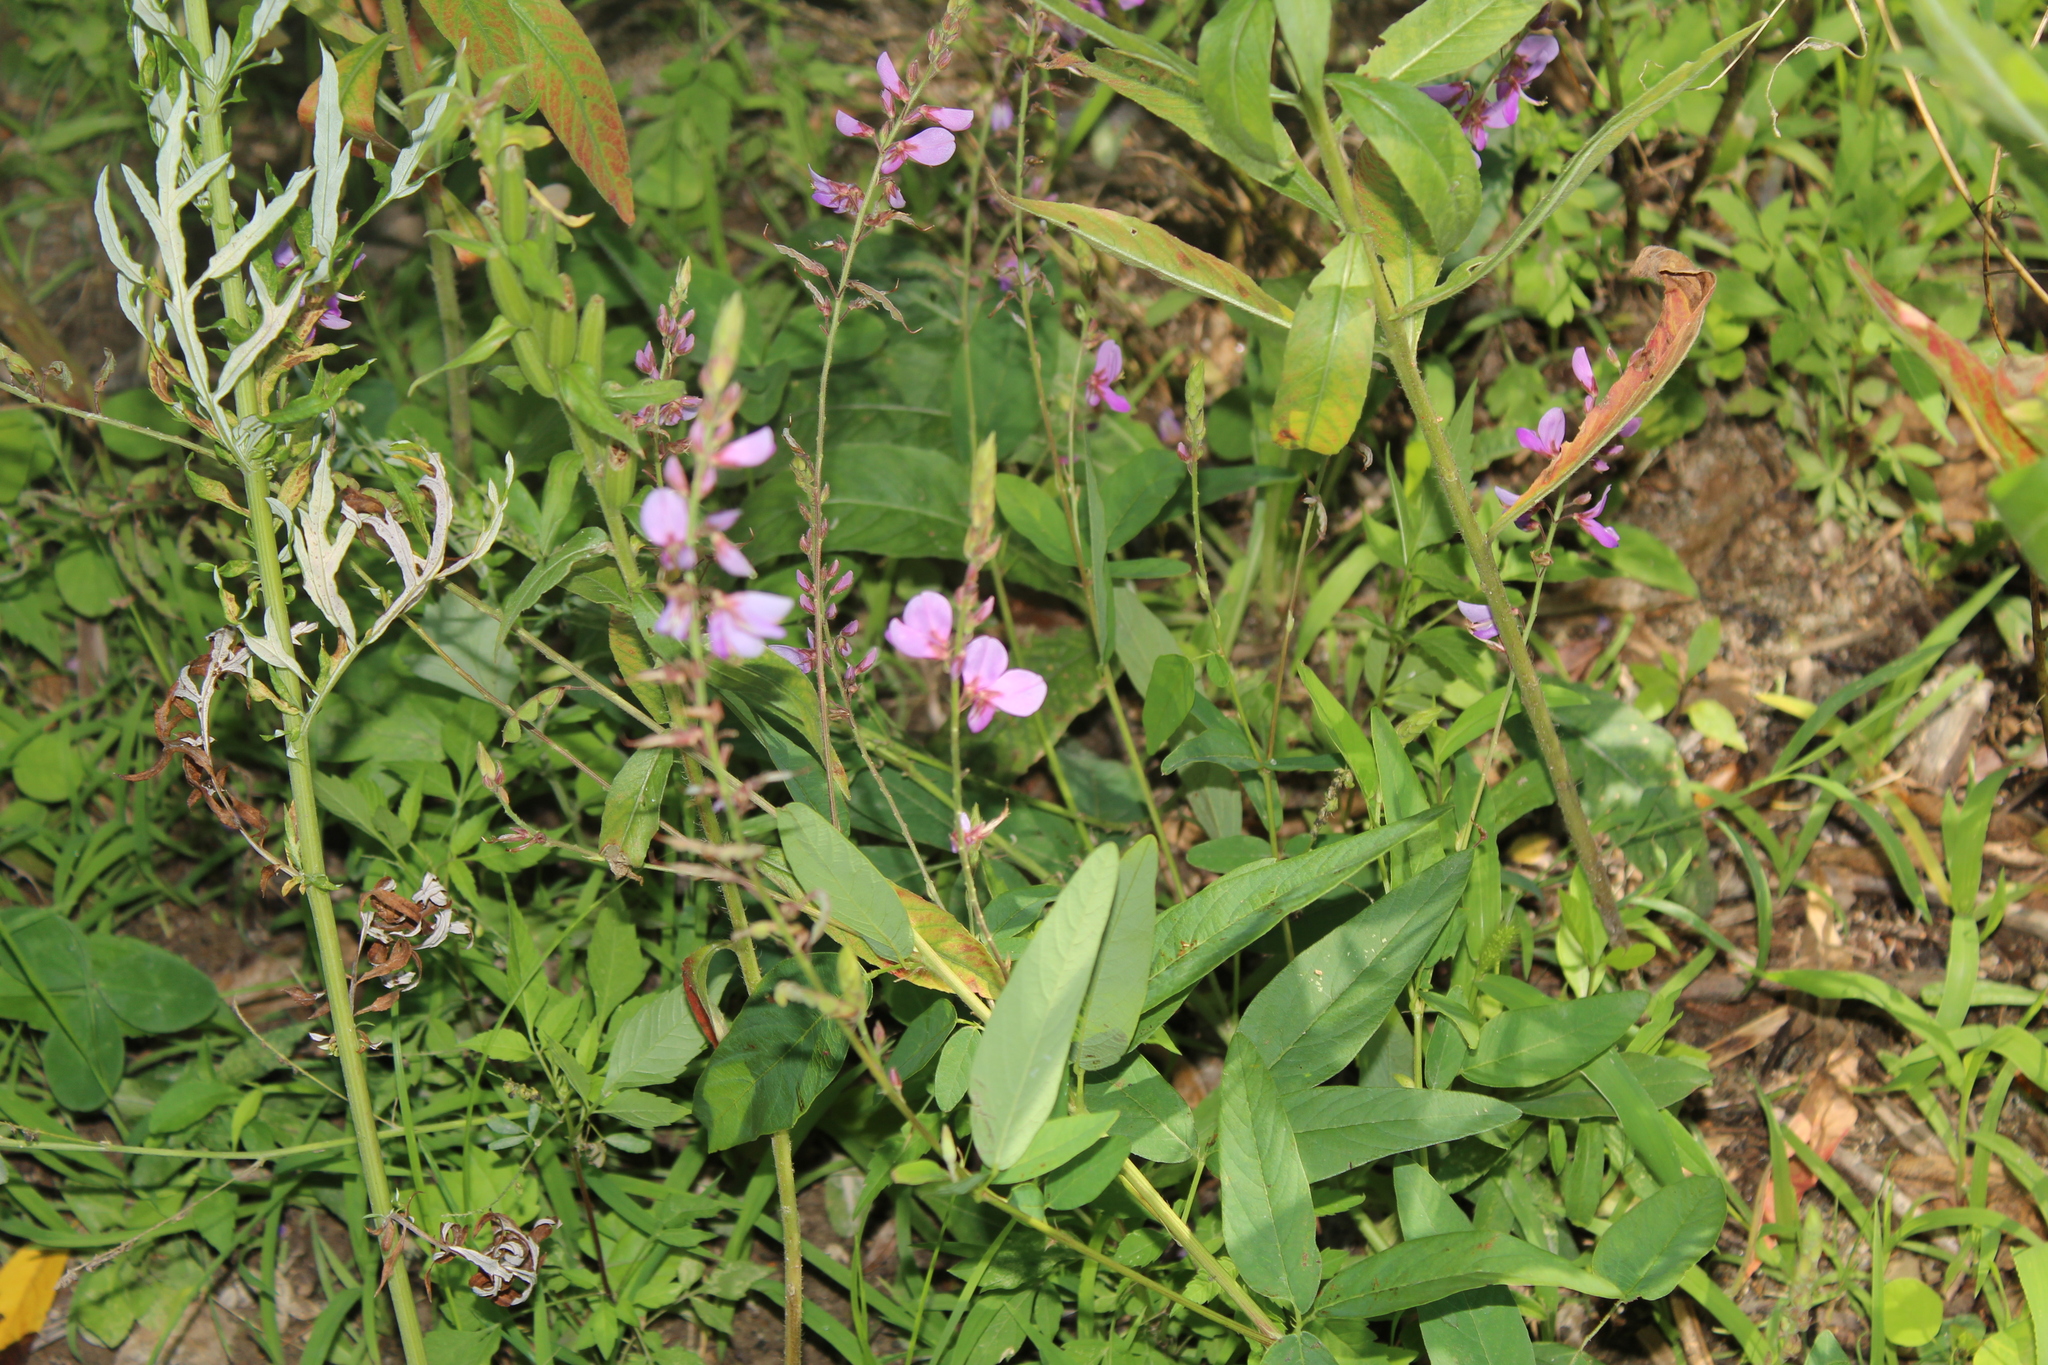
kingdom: Plantae
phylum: Tracheophyta
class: Magnoliopsida
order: Fabales
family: Fabaceae
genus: Desmodium
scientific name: Desmodium canadense
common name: Canada tick-trefoil
